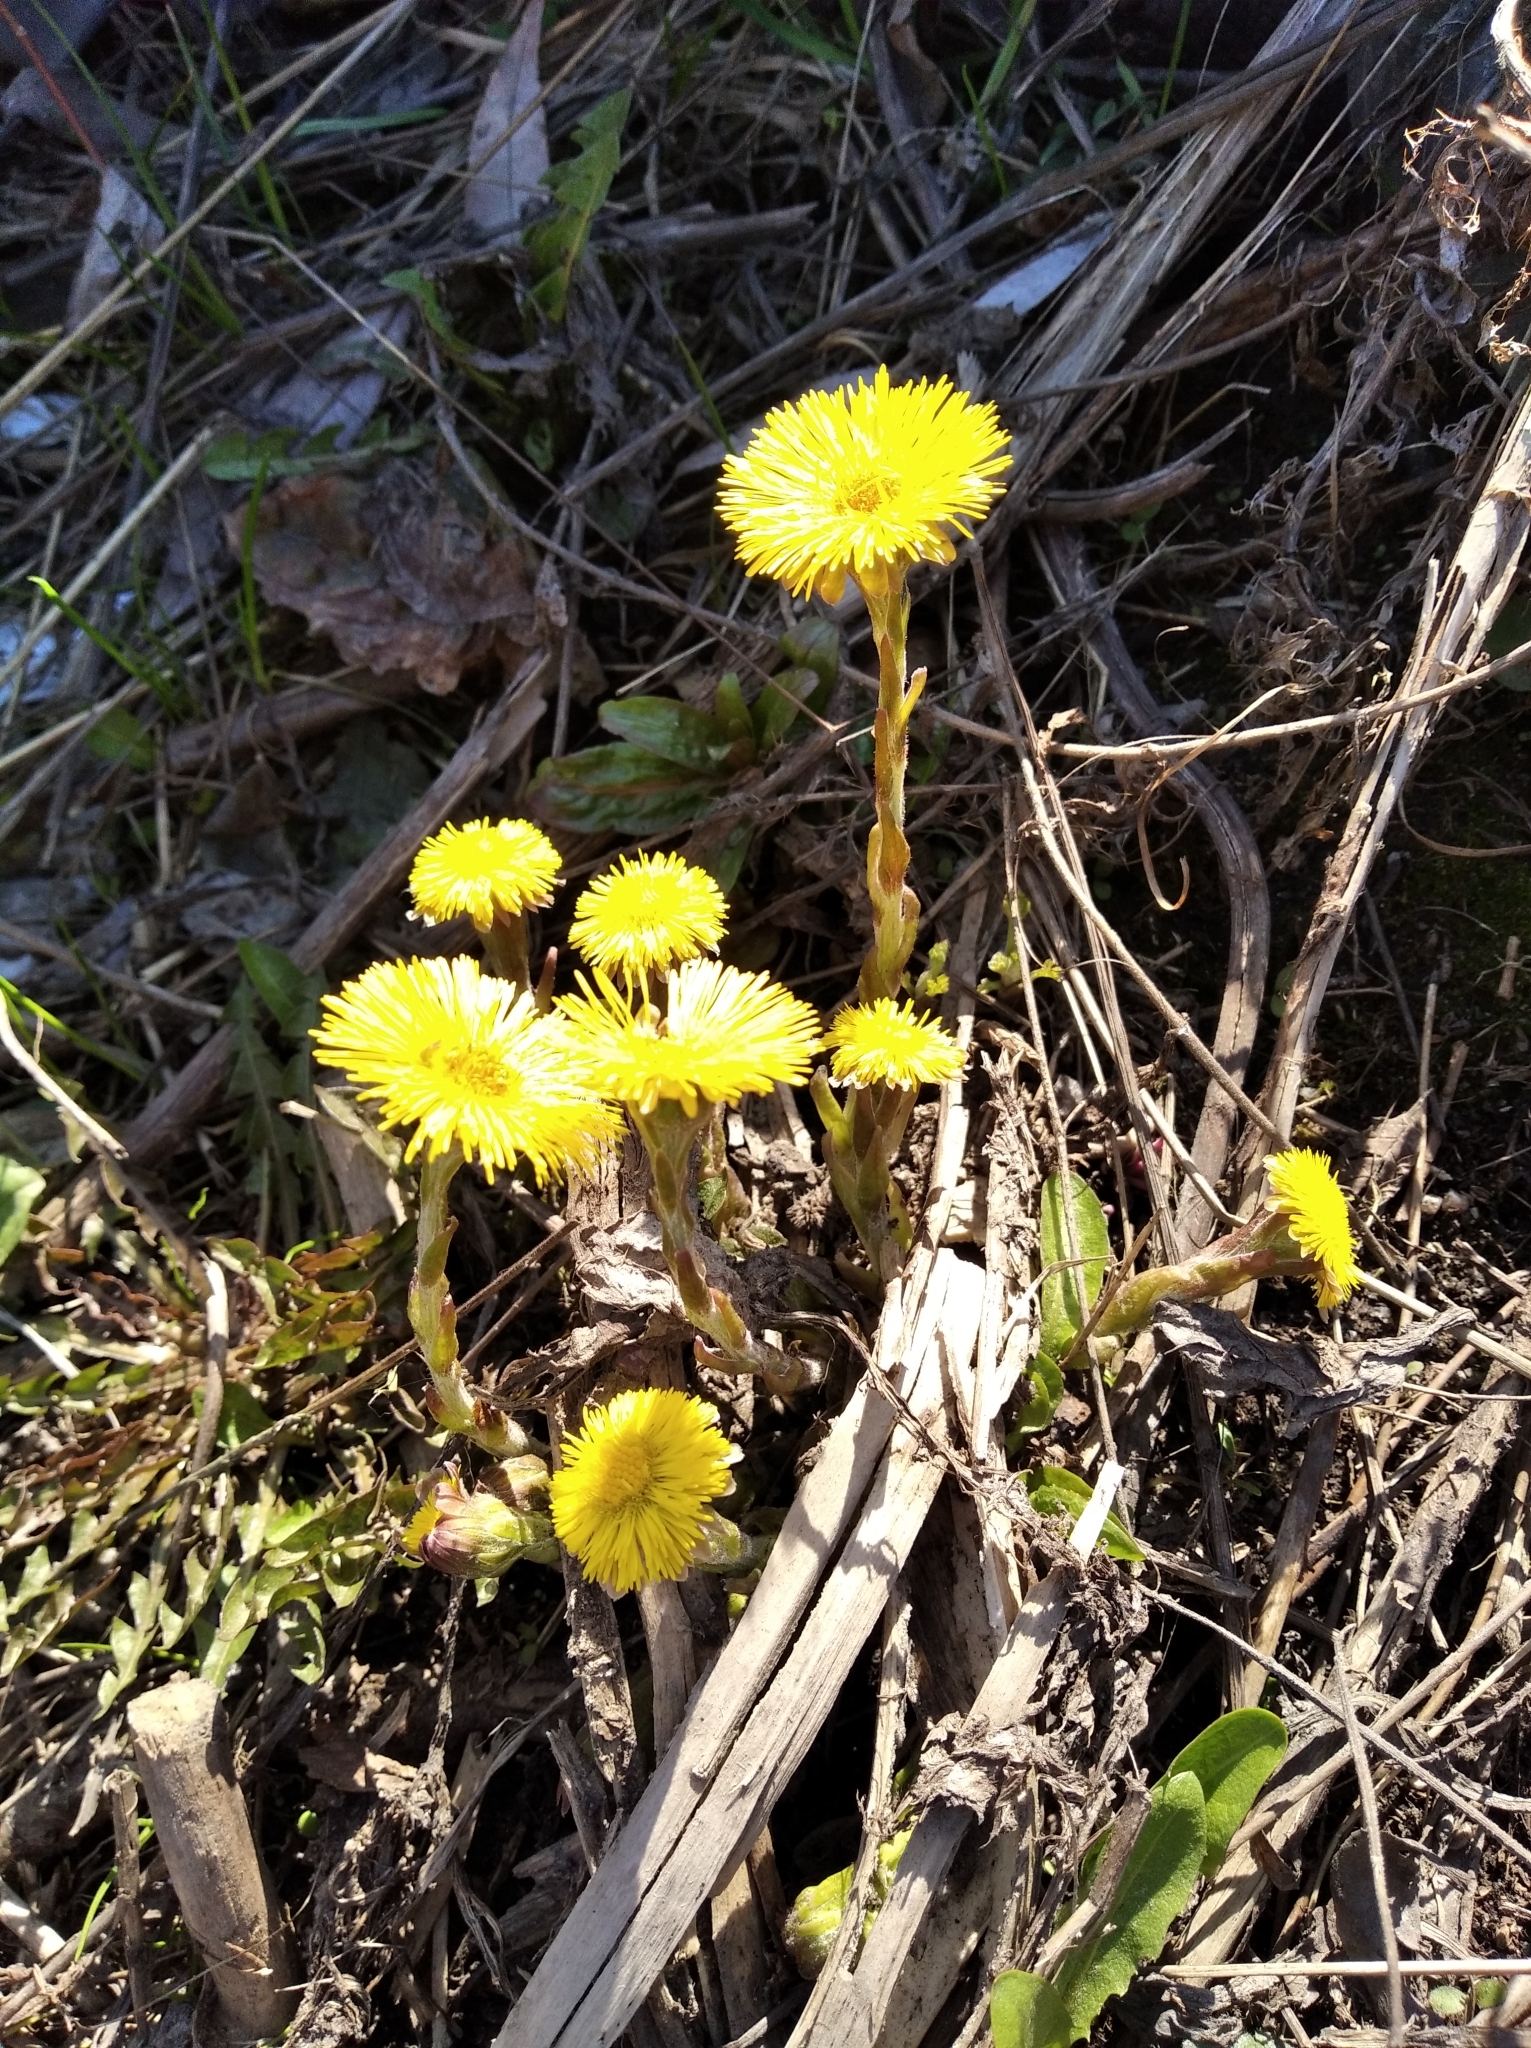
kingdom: Plantae
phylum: Tracheophyta
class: Magnoliopsida
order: Asterales
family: Asteraceae
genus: Tussilago
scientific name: Tussilago farfara
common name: Coltsfoot
